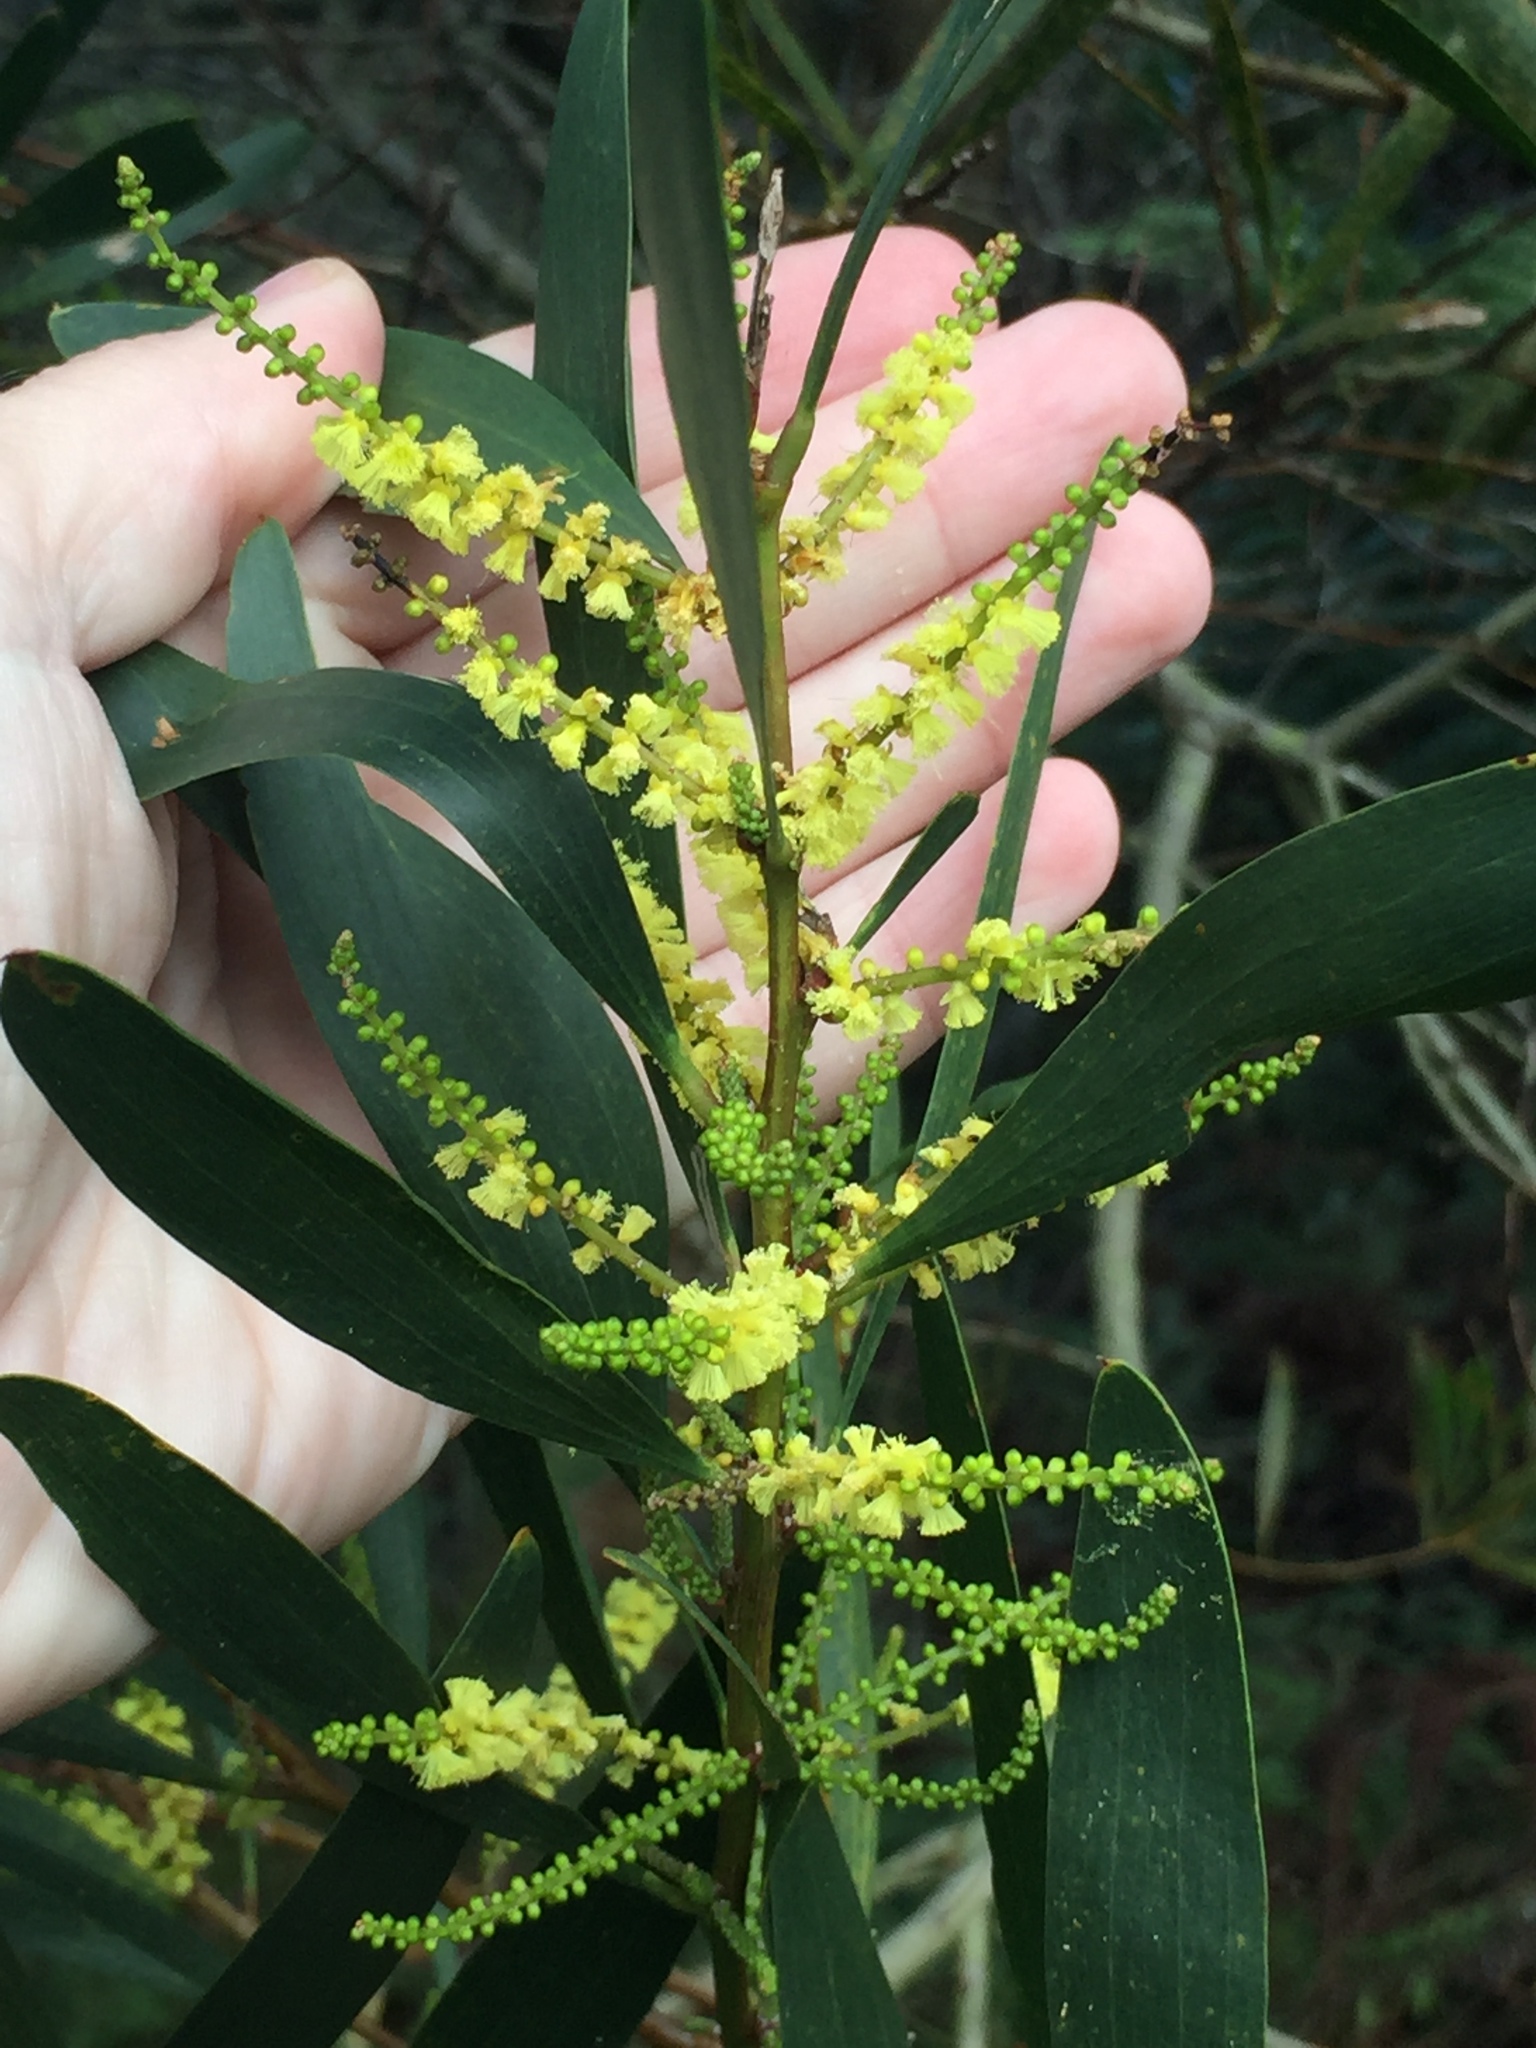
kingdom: Plantae
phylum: Tracheophyta
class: Magnoliopsida
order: Fabales
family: Fabaceae
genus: Acacia
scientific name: Acacia longifolia
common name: Sydney golden wattle
